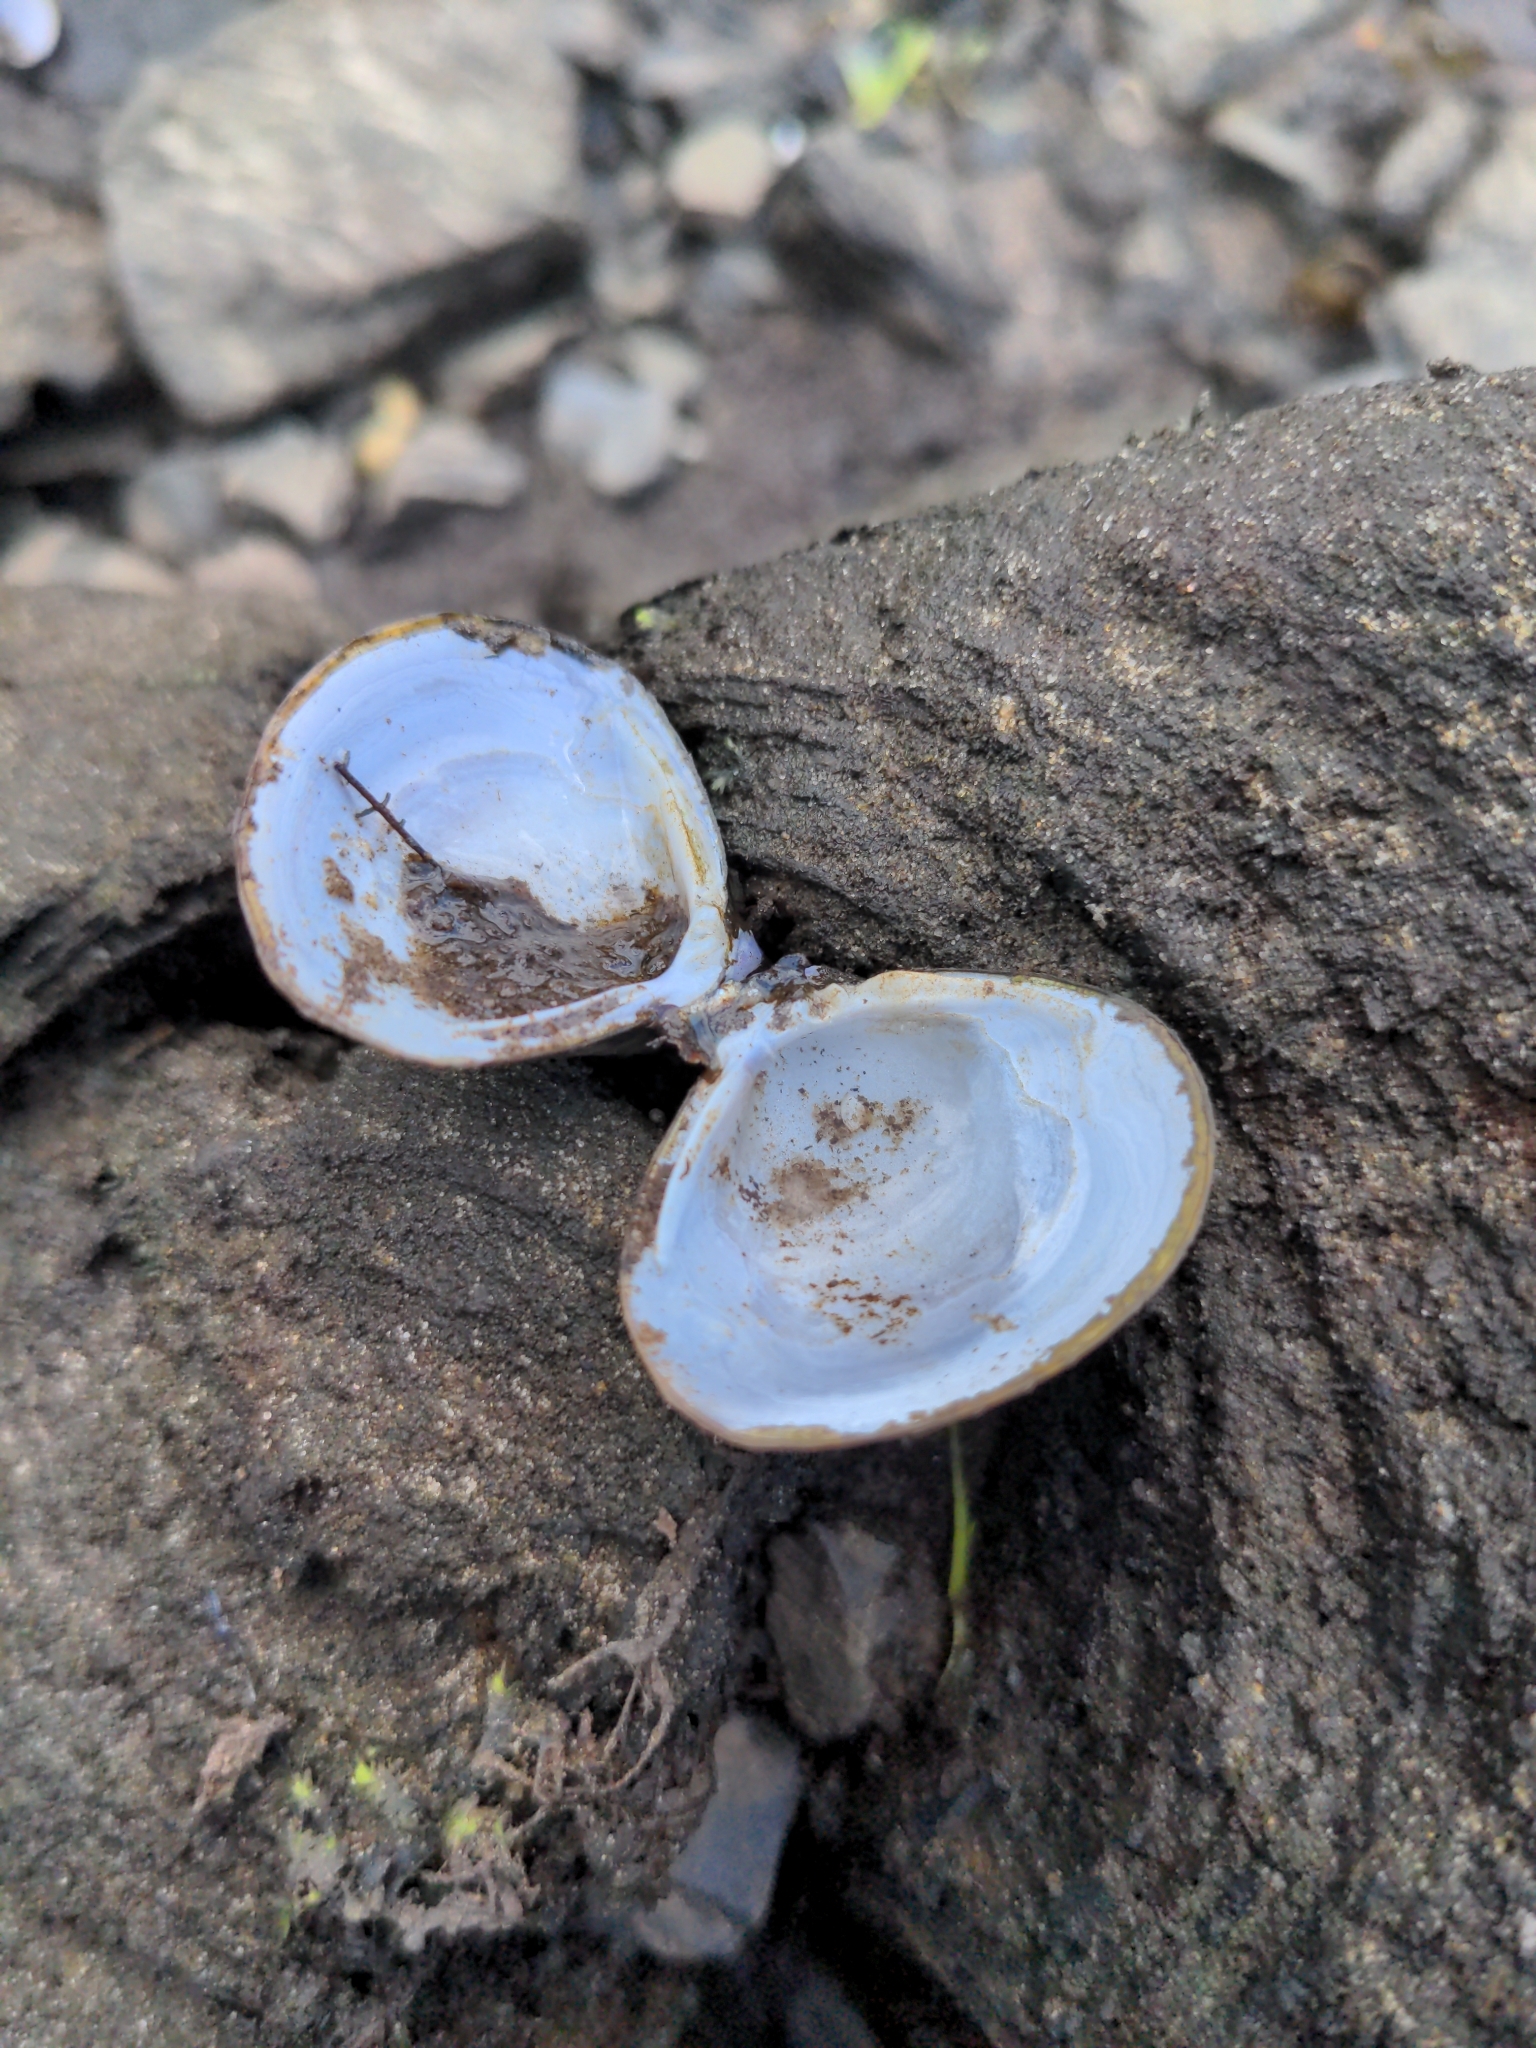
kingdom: Animalia
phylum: Mollusca
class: Bivalvia
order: Venerida
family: Cyrenidae
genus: Corbicula
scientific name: Corbicula fluminea
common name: Asian clam
